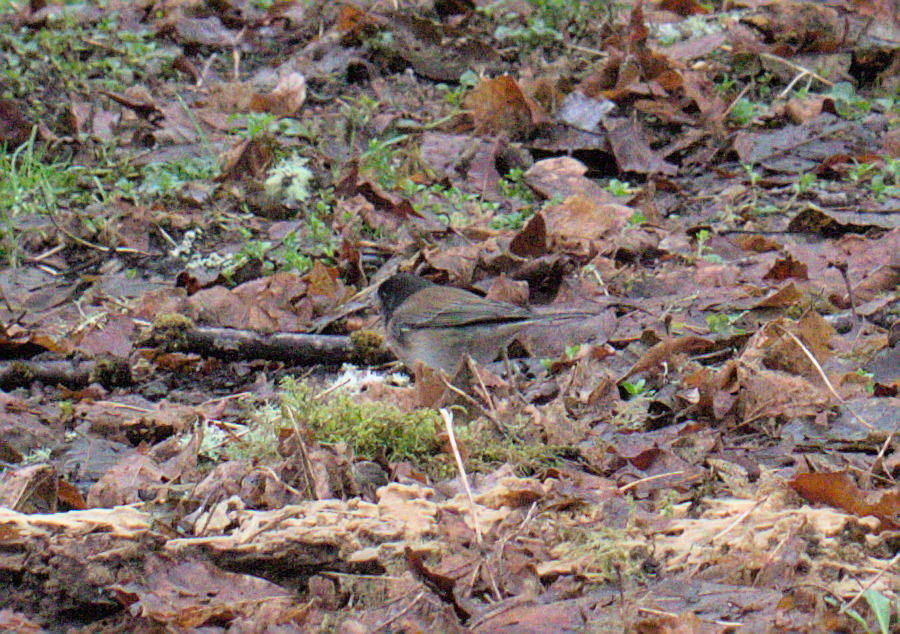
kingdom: Animalia
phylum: Chordata
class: Aves
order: Passeriformes
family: Passerellidae
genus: Junco
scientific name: Junco hyemalis
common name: Dark-eyed junco
